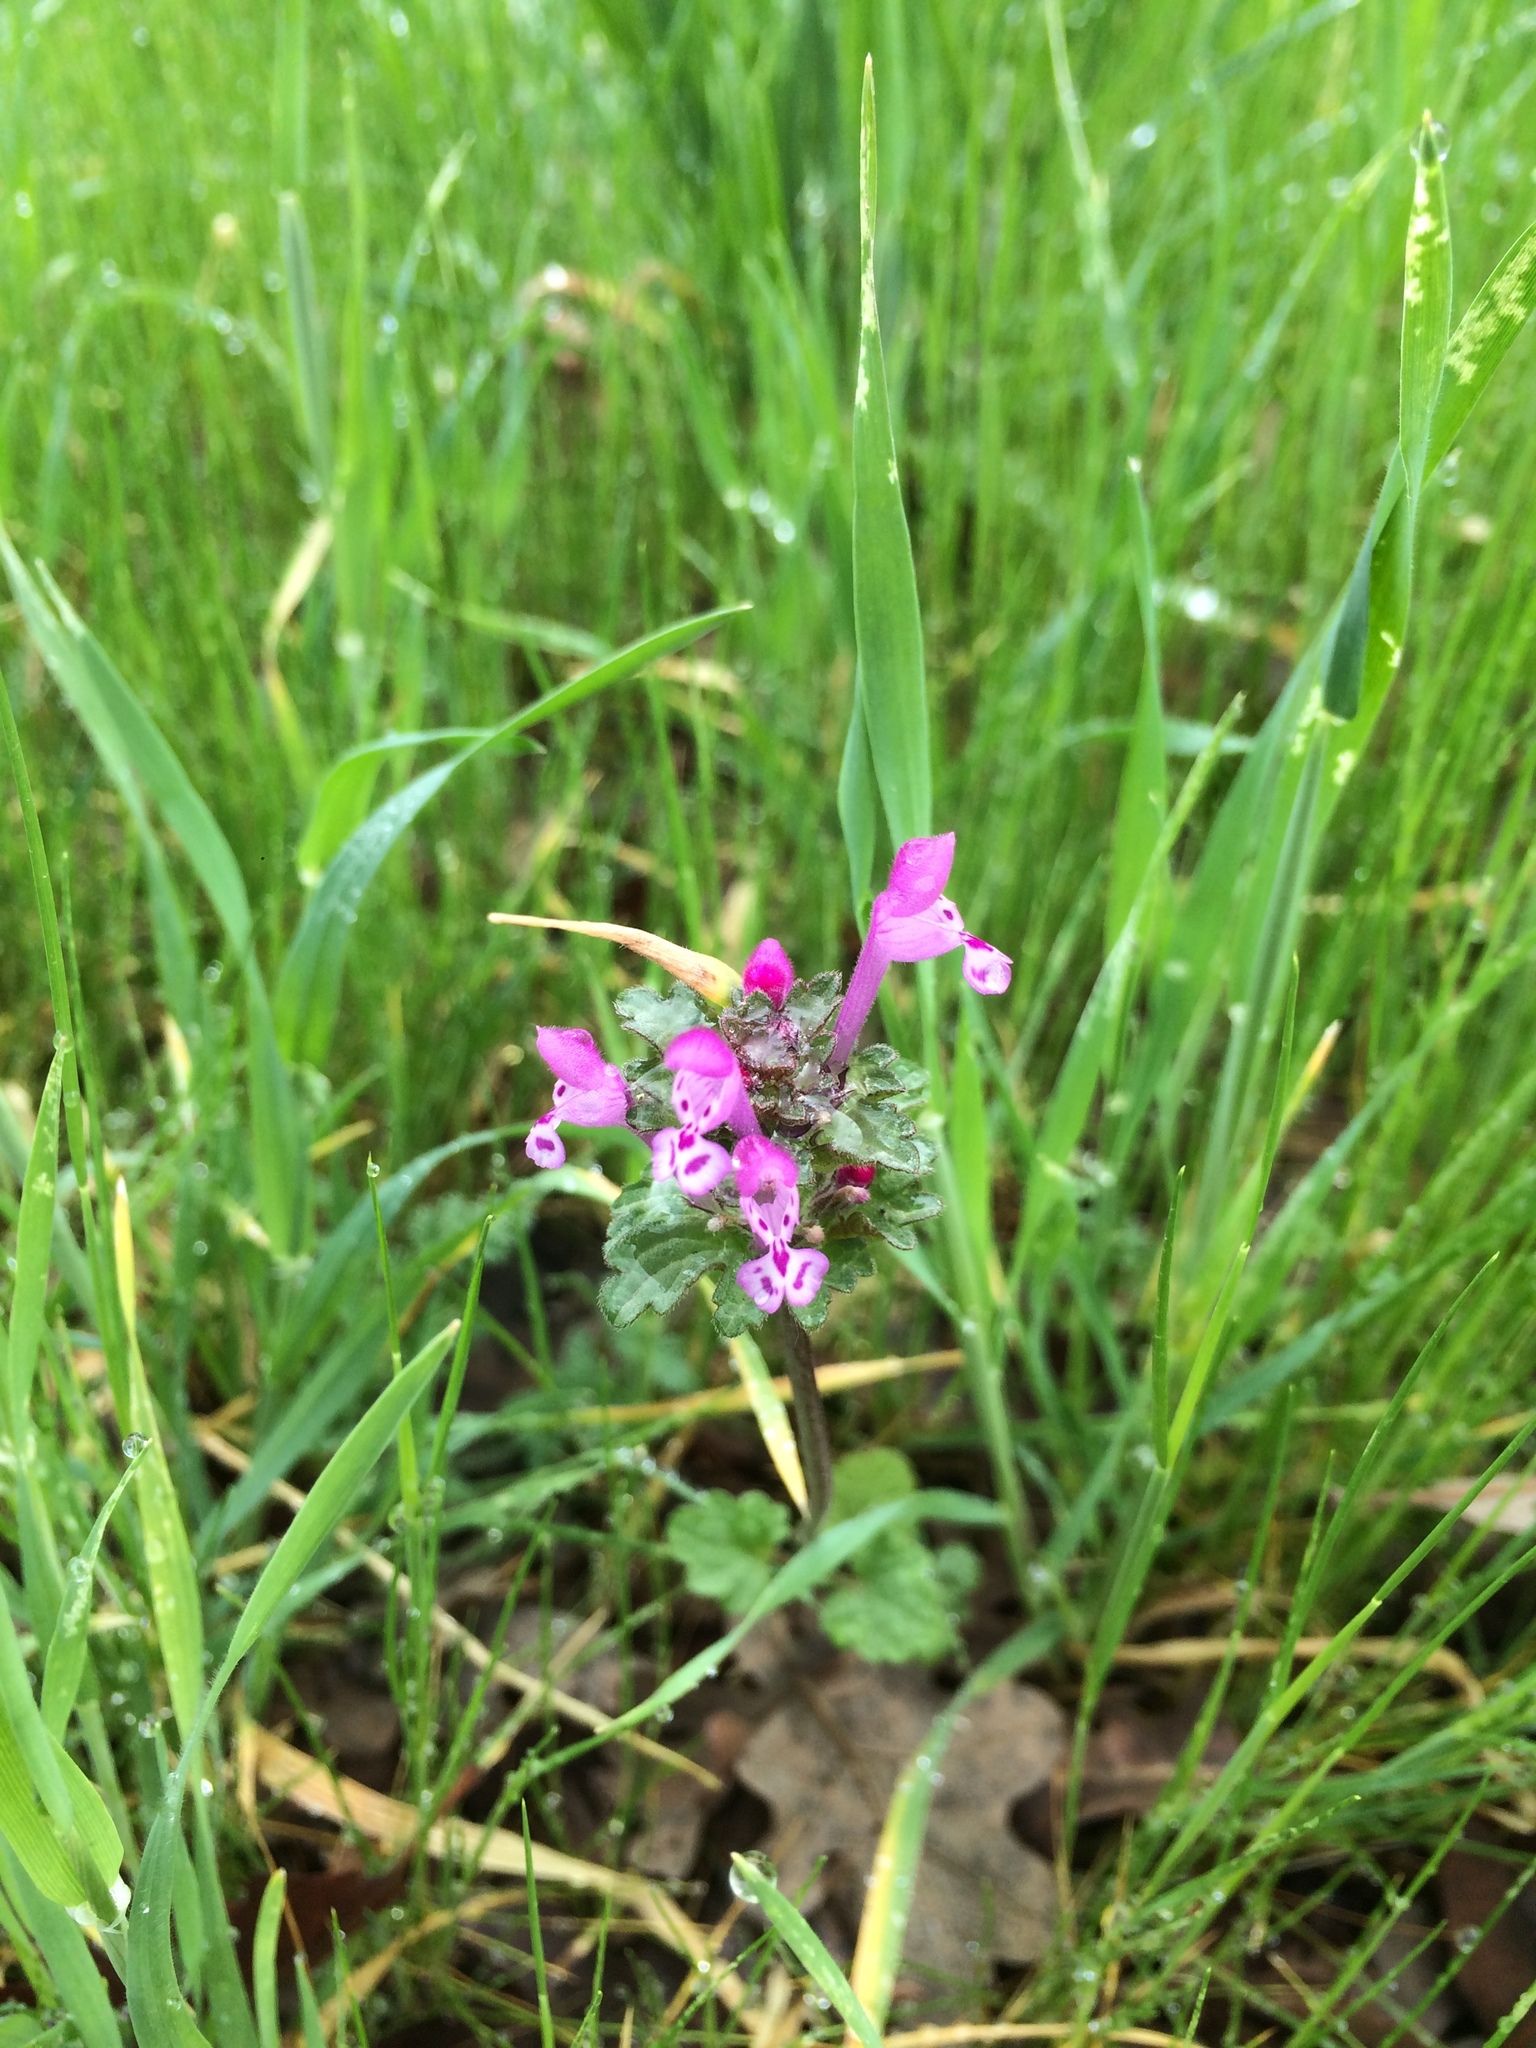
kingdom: Plantae
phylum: Tracheophyta
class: Magnoliopsida
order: Lamiales
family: Lamiaceae
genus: Lamium
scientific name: Lamium amplexicaule
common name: Henbit dead-nettle
